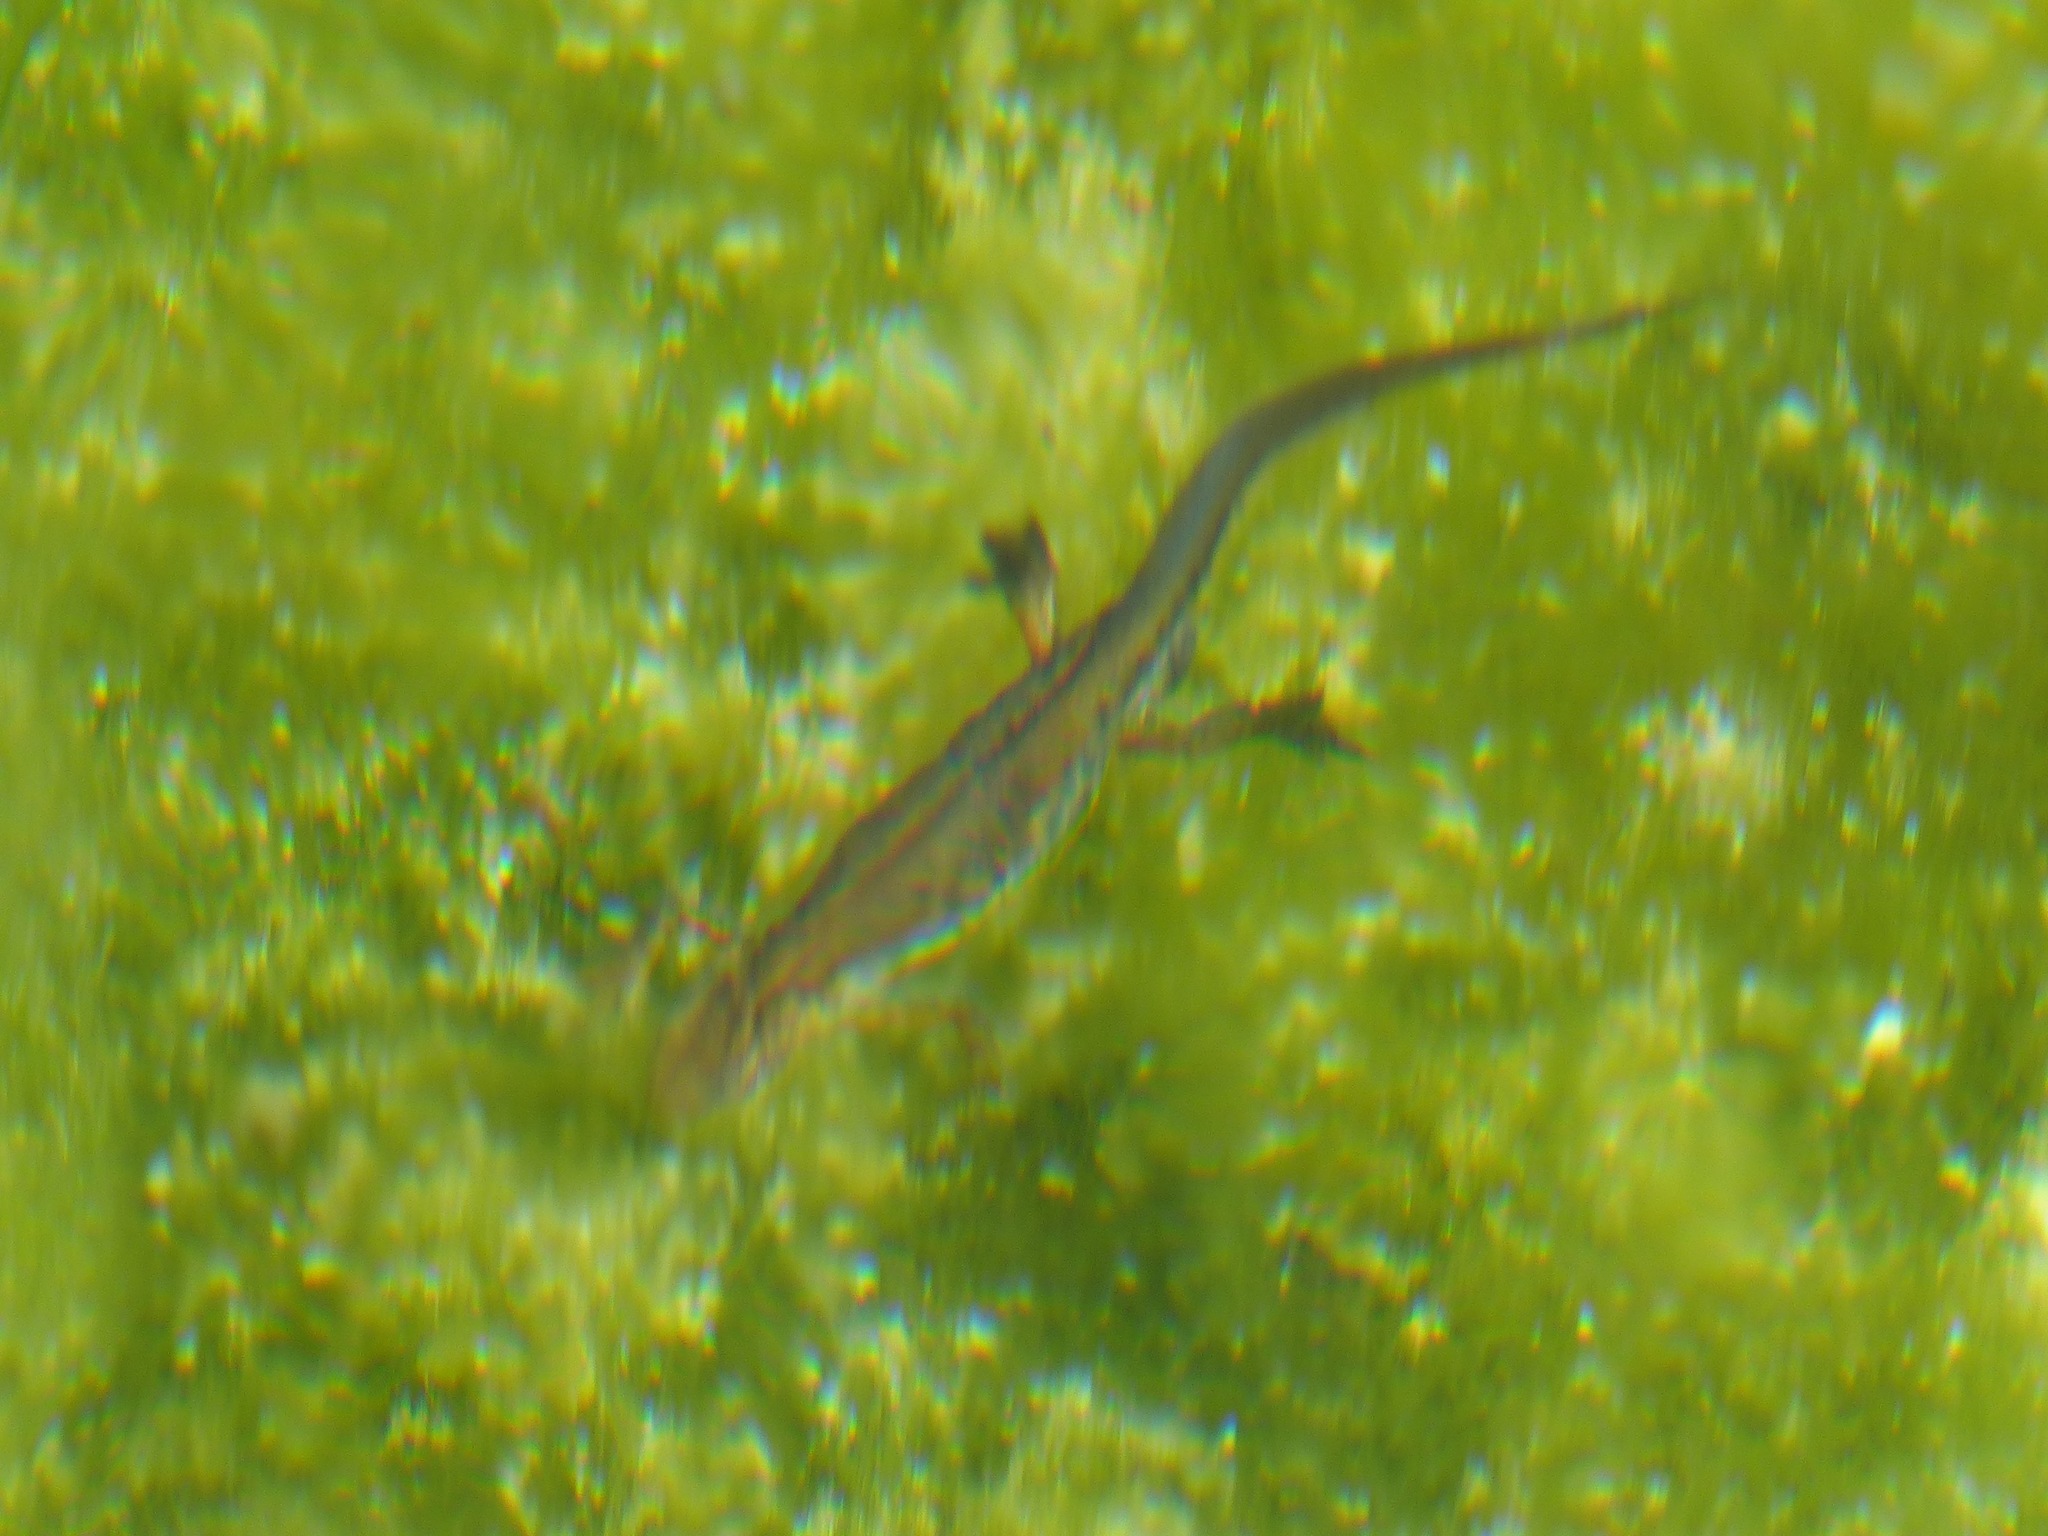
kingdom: Animalia
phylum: Chordata
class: Amphibia
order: Caudata
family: Salamandridae
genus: Lissotriton
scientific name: Lissotriton helveticus
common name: Palmate newt
